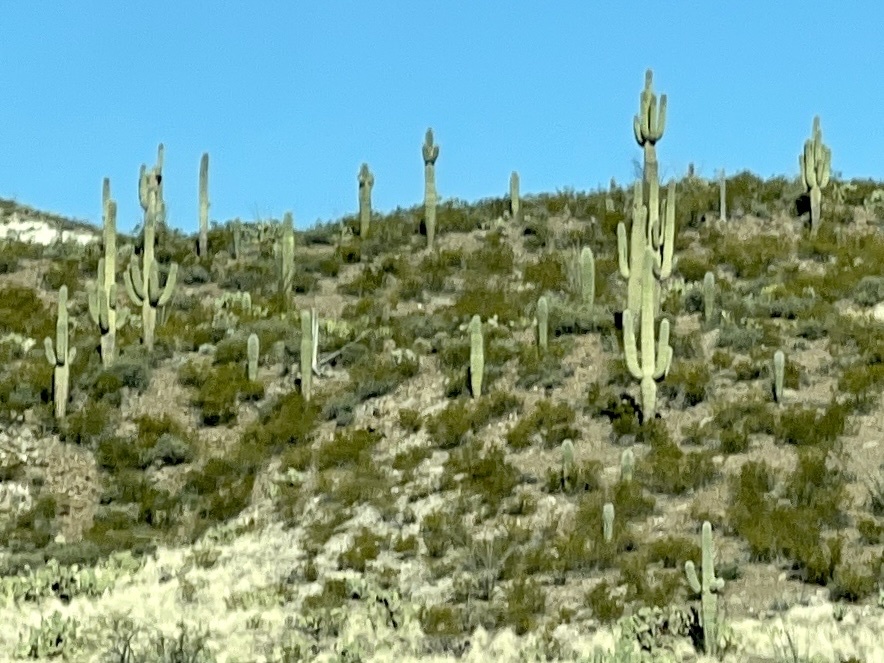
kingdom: Plantae
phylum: Tracheophyta
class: Magnoliopsida
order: Caryophyllales
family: Cactaceae
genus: Carnegiea
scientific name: Carnegiea gigantea
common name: Saguaro
